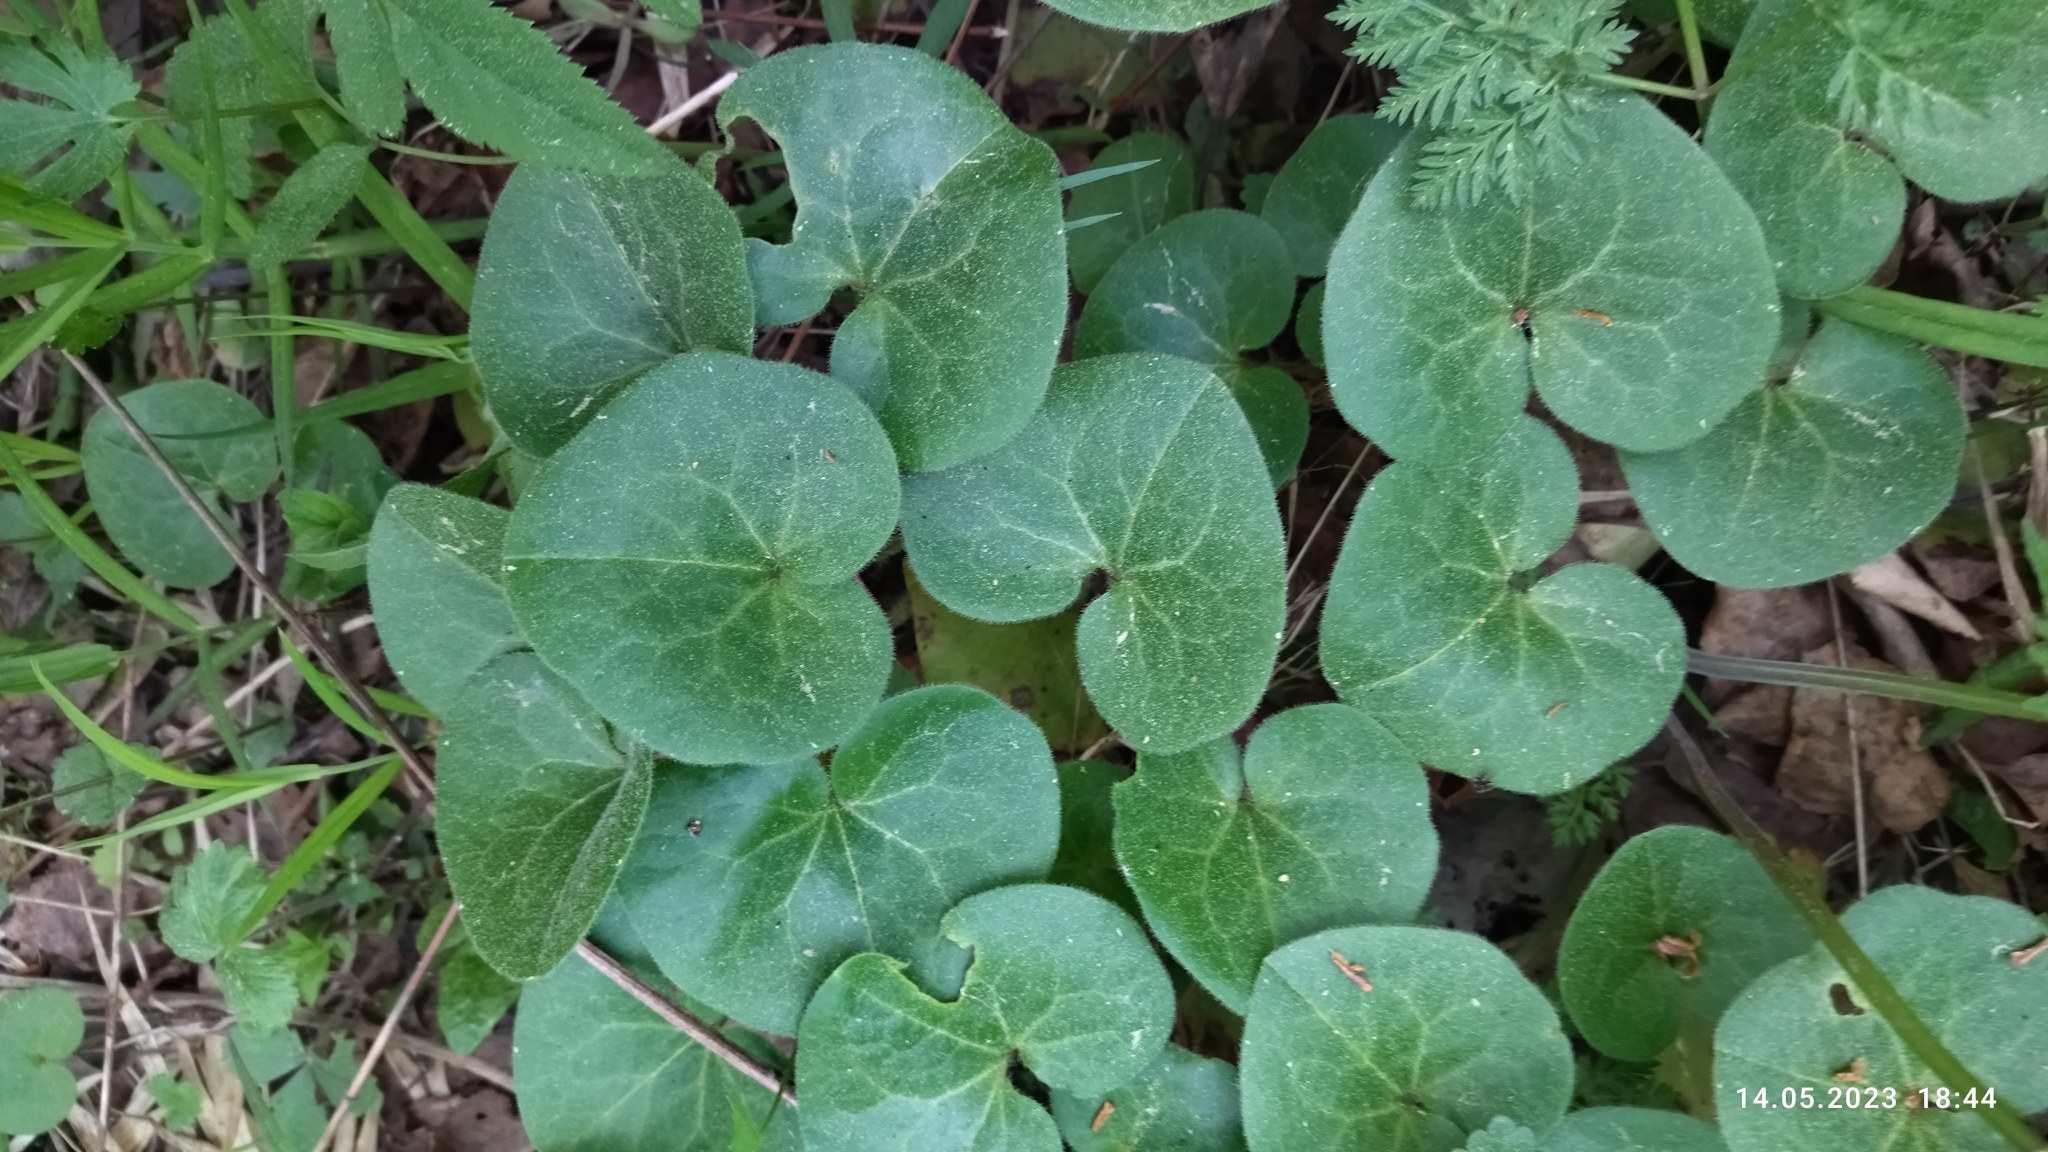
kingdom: Plantae
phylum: Tracheophyta
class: Magnoliopsida
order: Piperales
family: Aristolochiaceae
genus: Asarum
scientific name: Asarum europaeum
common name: Asarabacca
